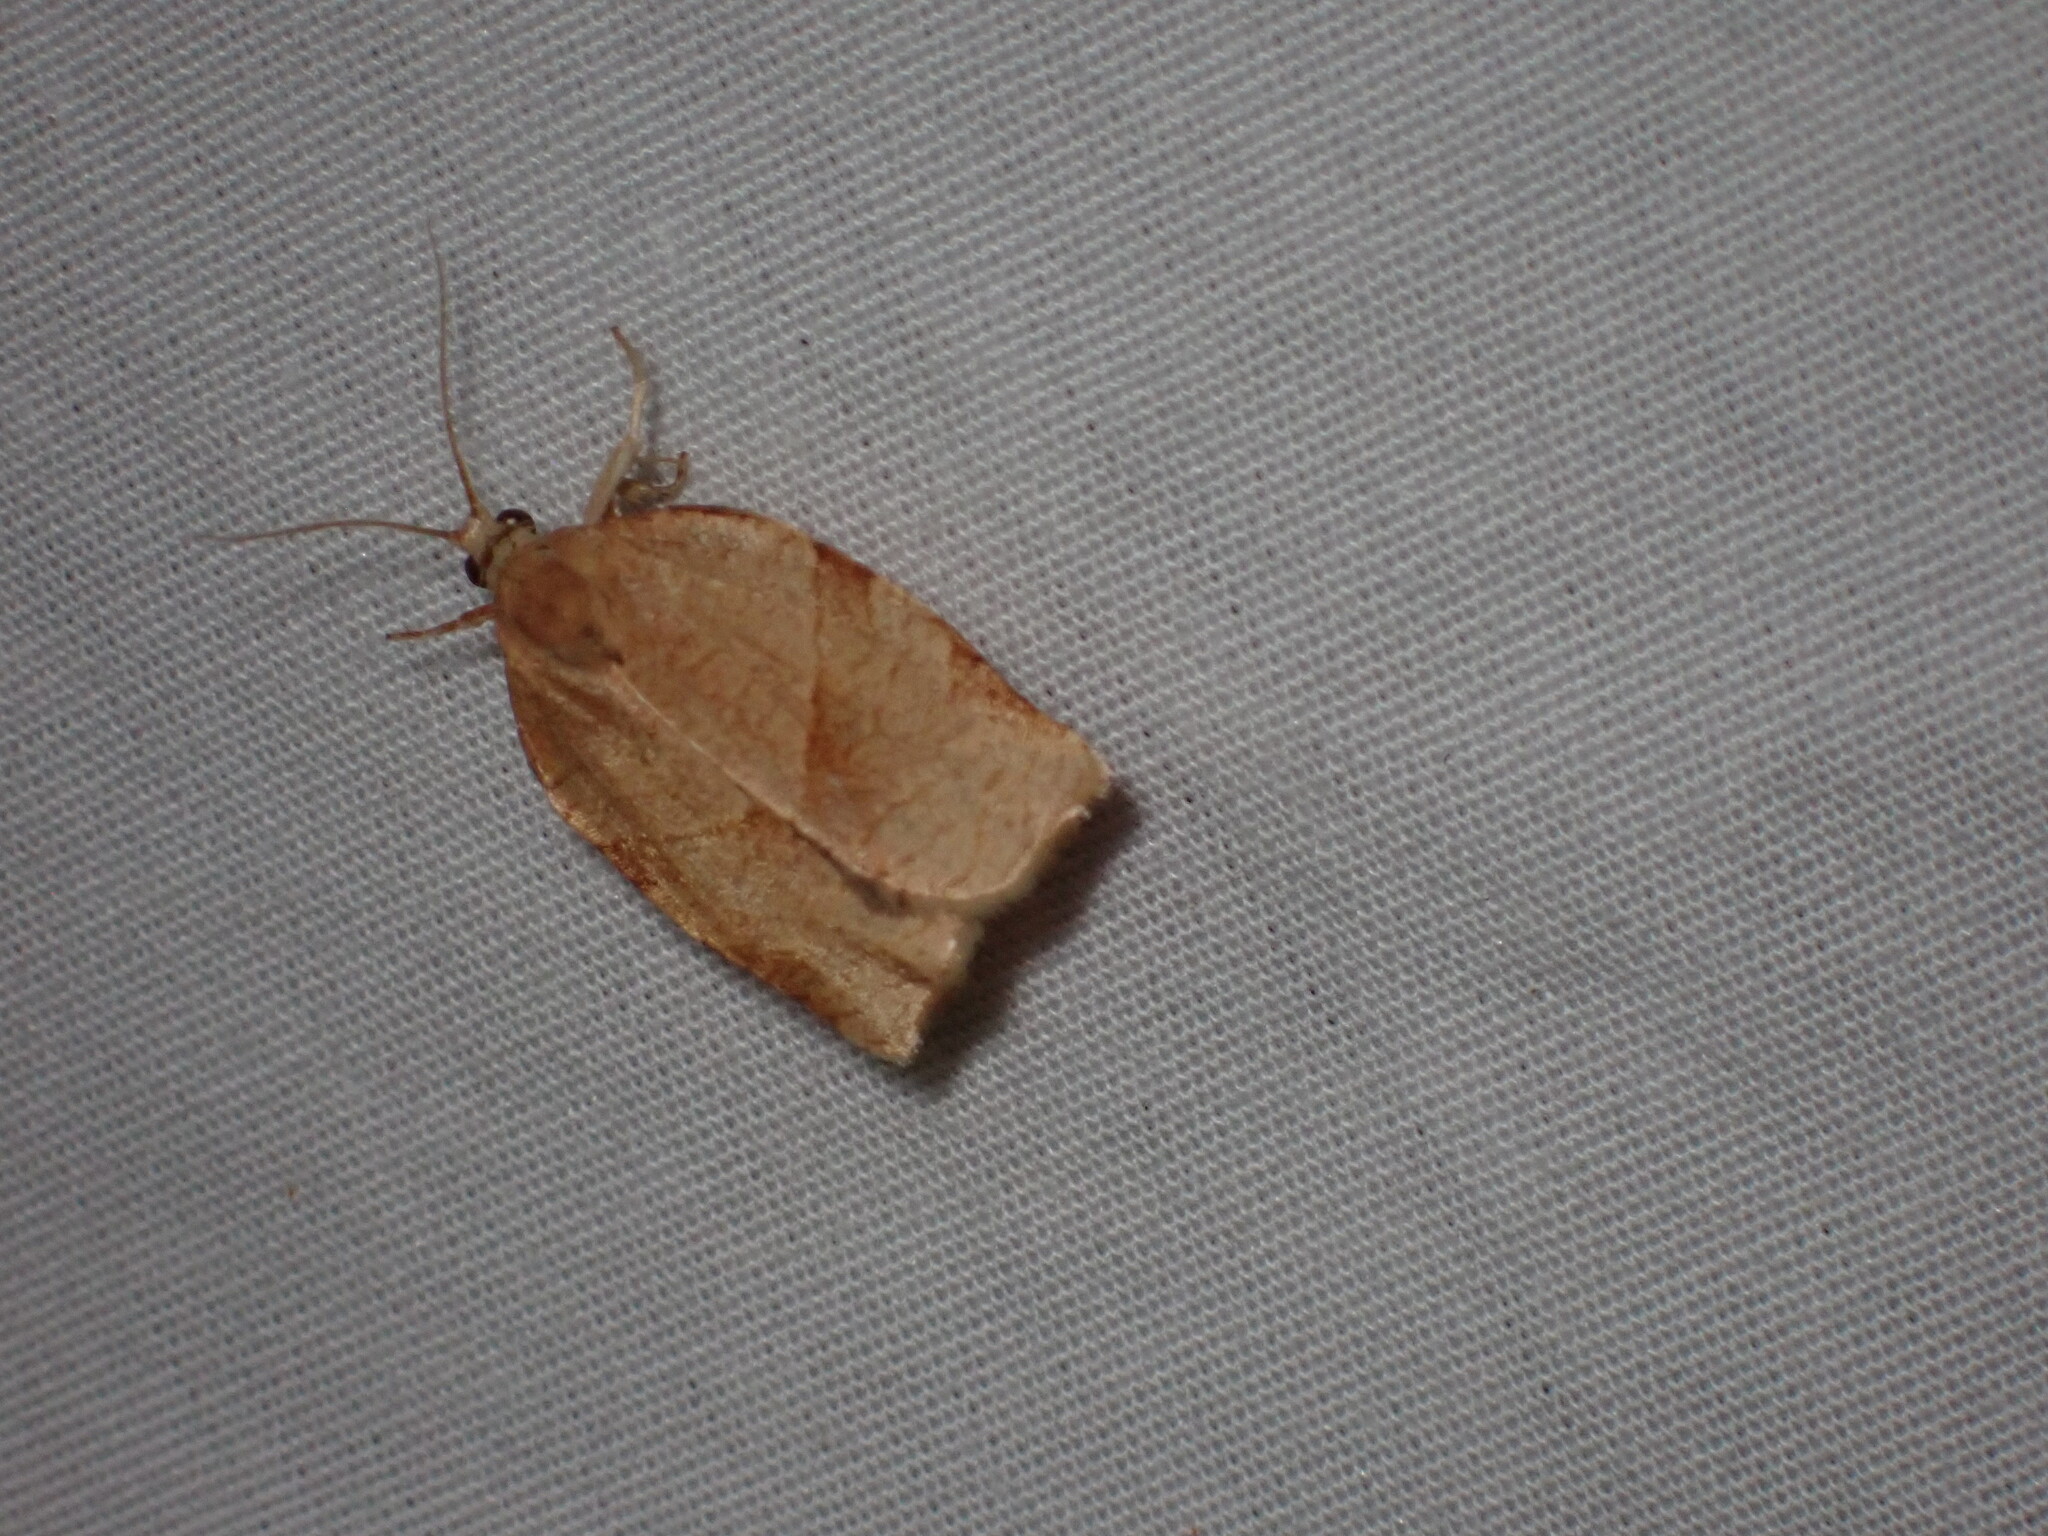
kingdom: Animalia
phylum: Arthropoda
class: Insecta
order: Lepidoptera
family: Tortricidae
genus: Choristoneura
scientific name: Choristoneura rosaceana
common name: Oblique-banded leafroller moth
